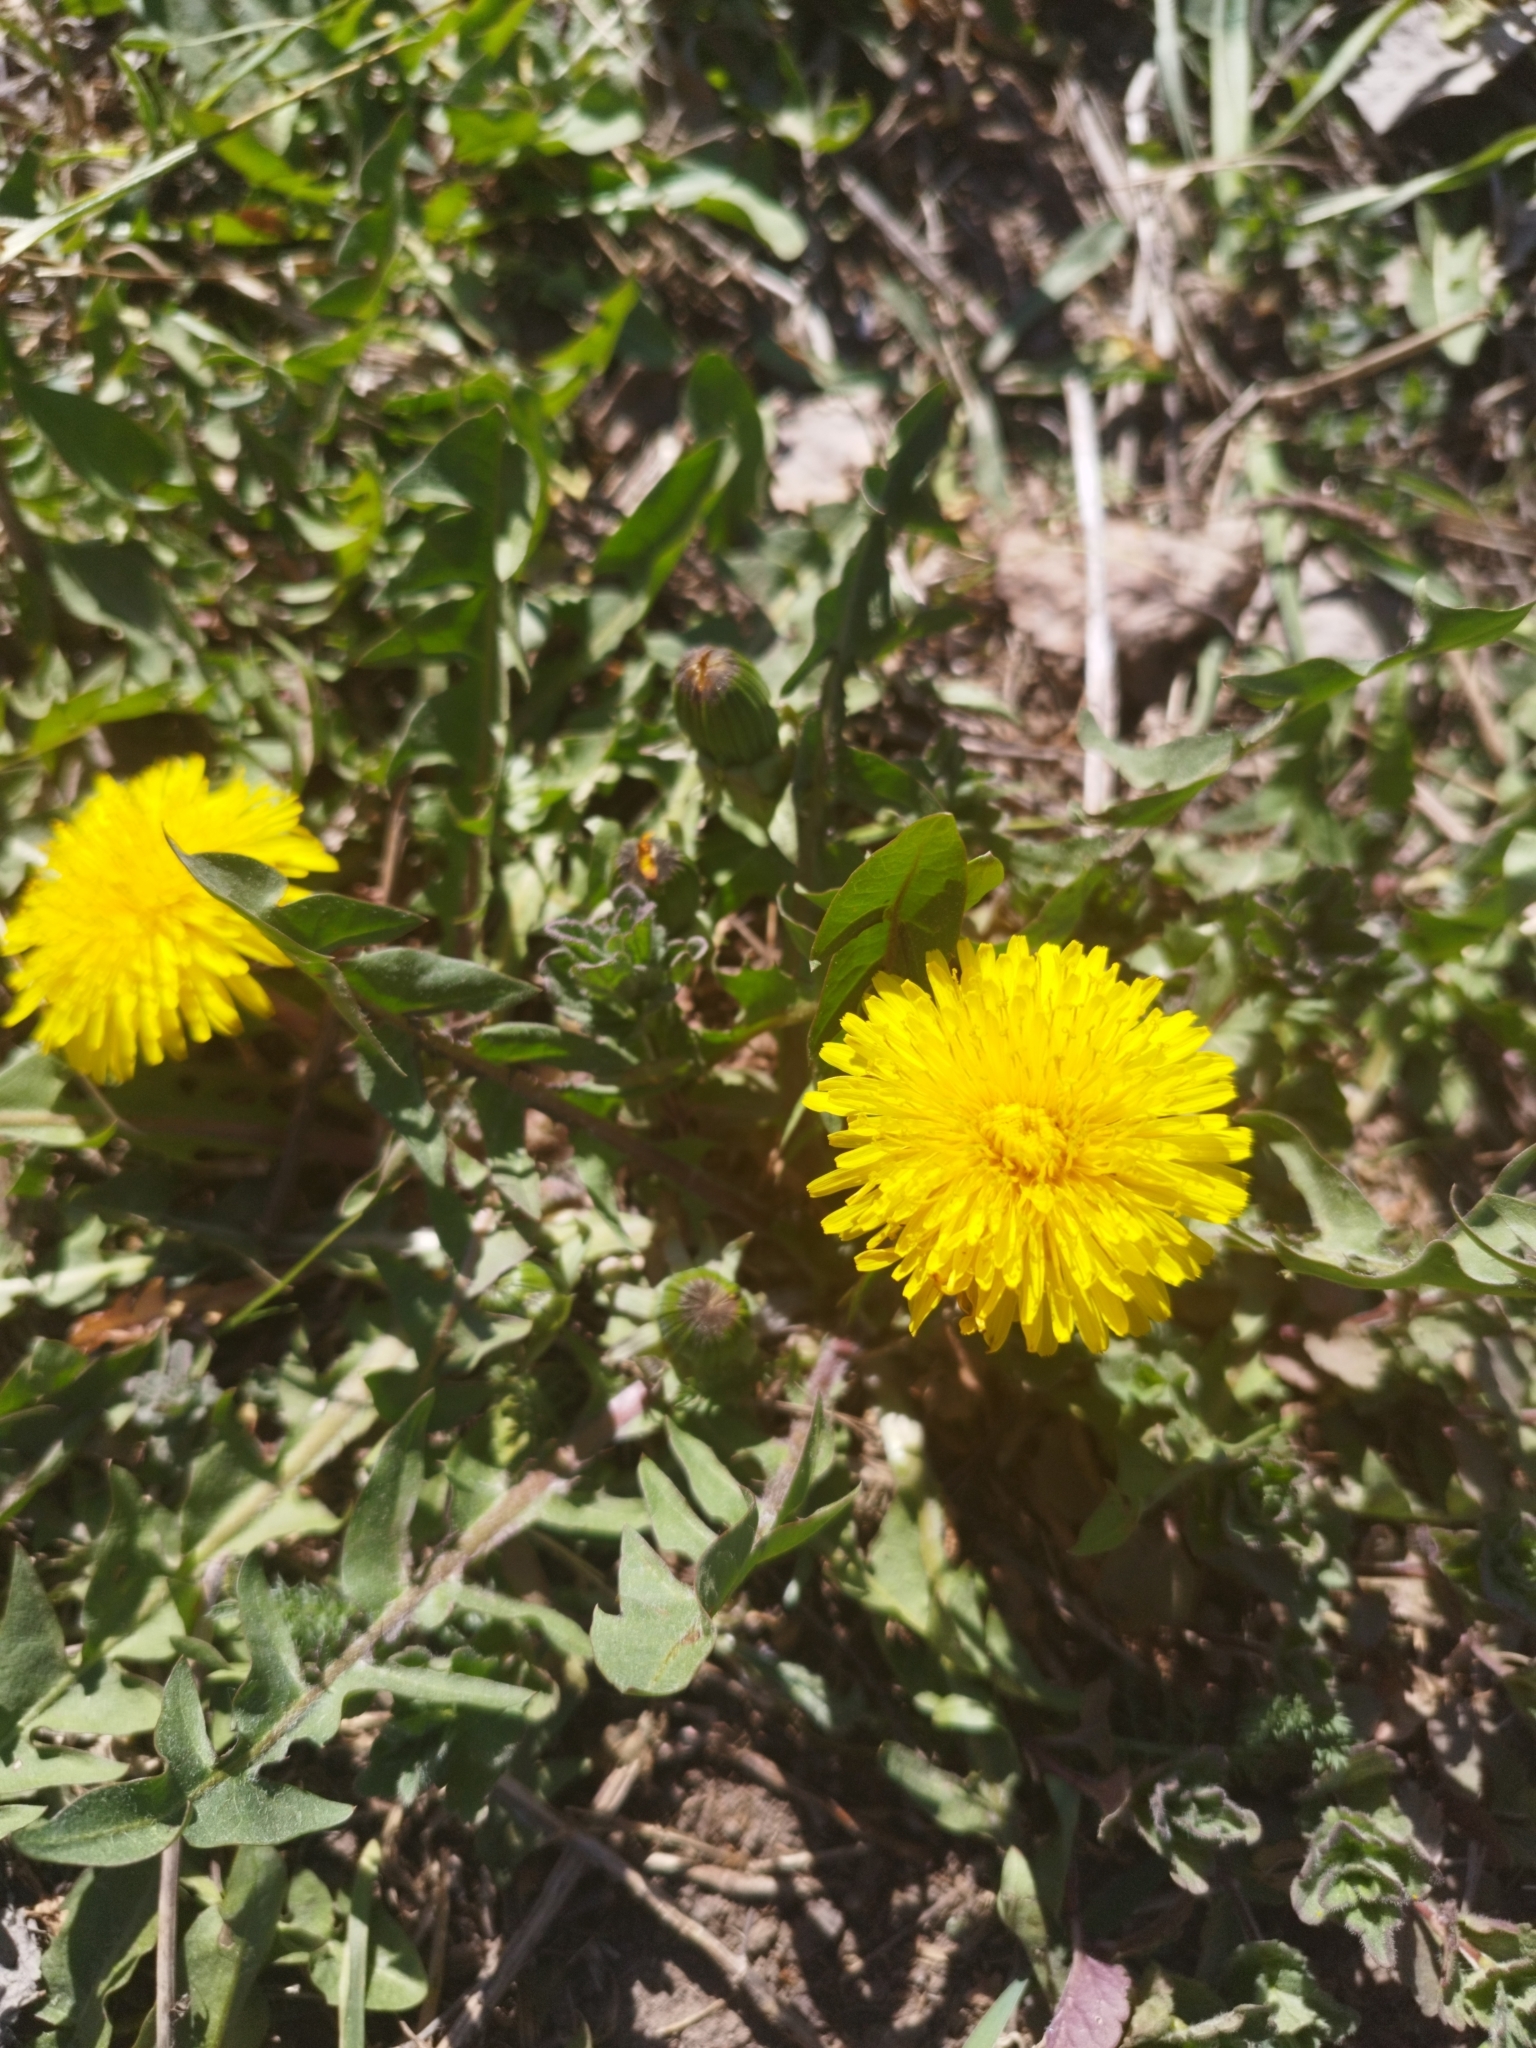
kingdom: Plantae
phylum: Tracheophyta
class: Magnoliopsida
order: Asterales
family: Asteraceae
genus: Taraxacum
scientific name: Taraxacum officinale
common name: Common dandelion
